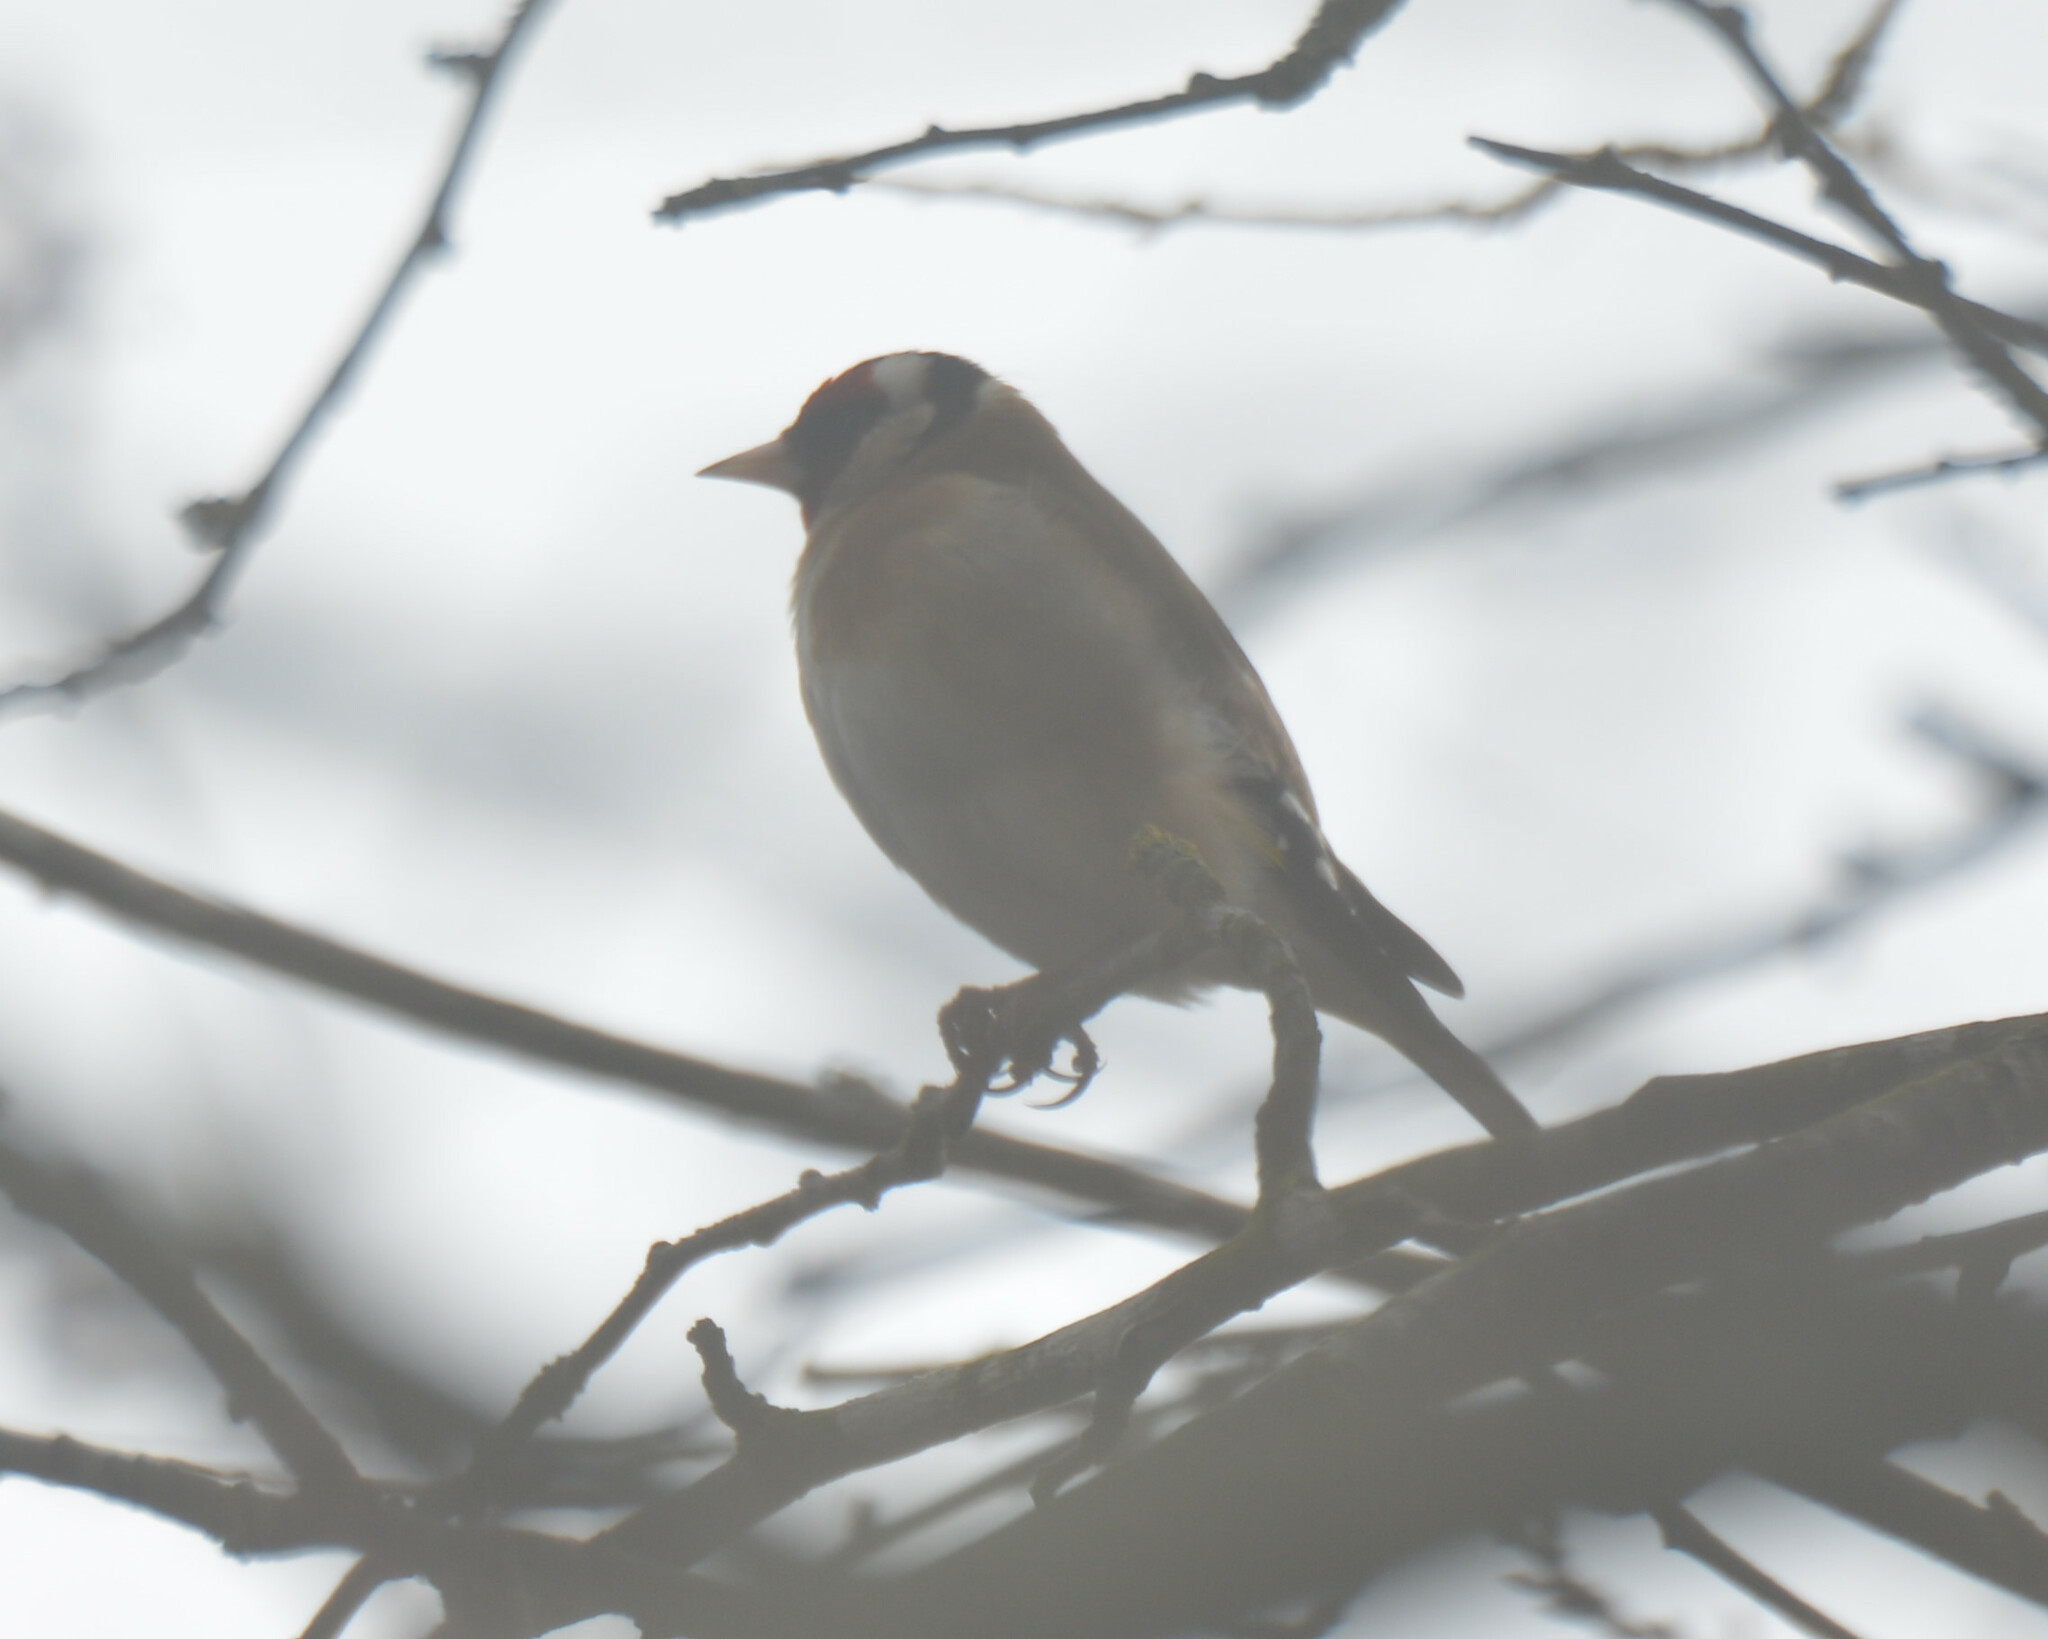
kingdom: Animalia
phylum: Chordata
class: Aves
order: Passeriformes
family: Fringillidae
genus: Carduelis
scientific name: Carduelis carduelis
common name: European goldfinch
